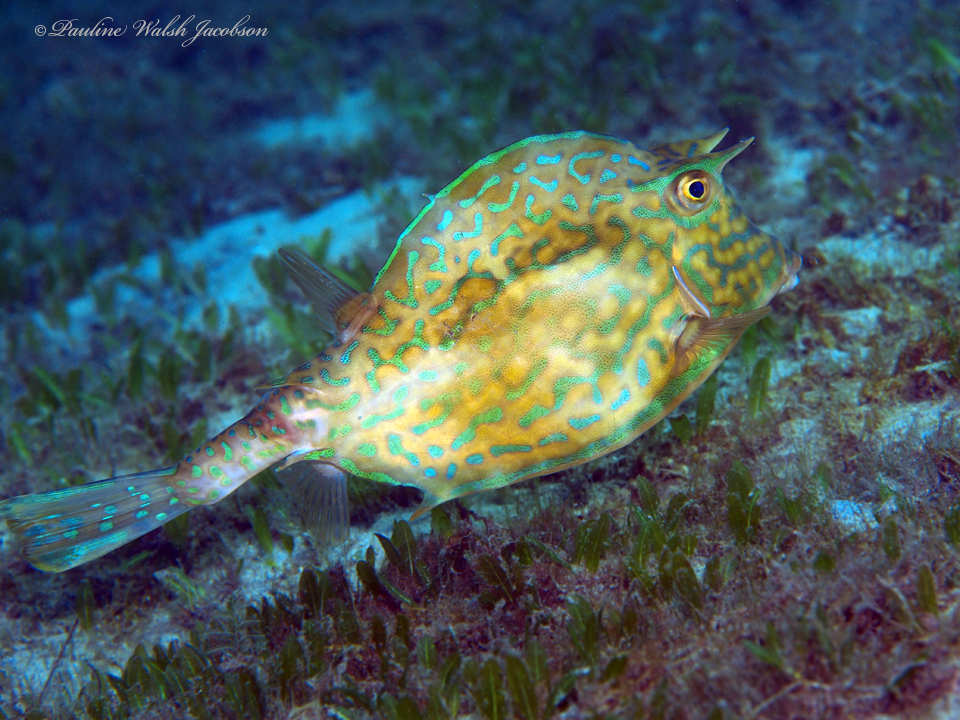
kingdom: Animalia
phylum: Chordata
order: Tetraodontiformes
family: Ostraciidae
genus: Acanthostracion
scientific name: Acanthostracion quadricornis
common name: Scrawled cowfish
